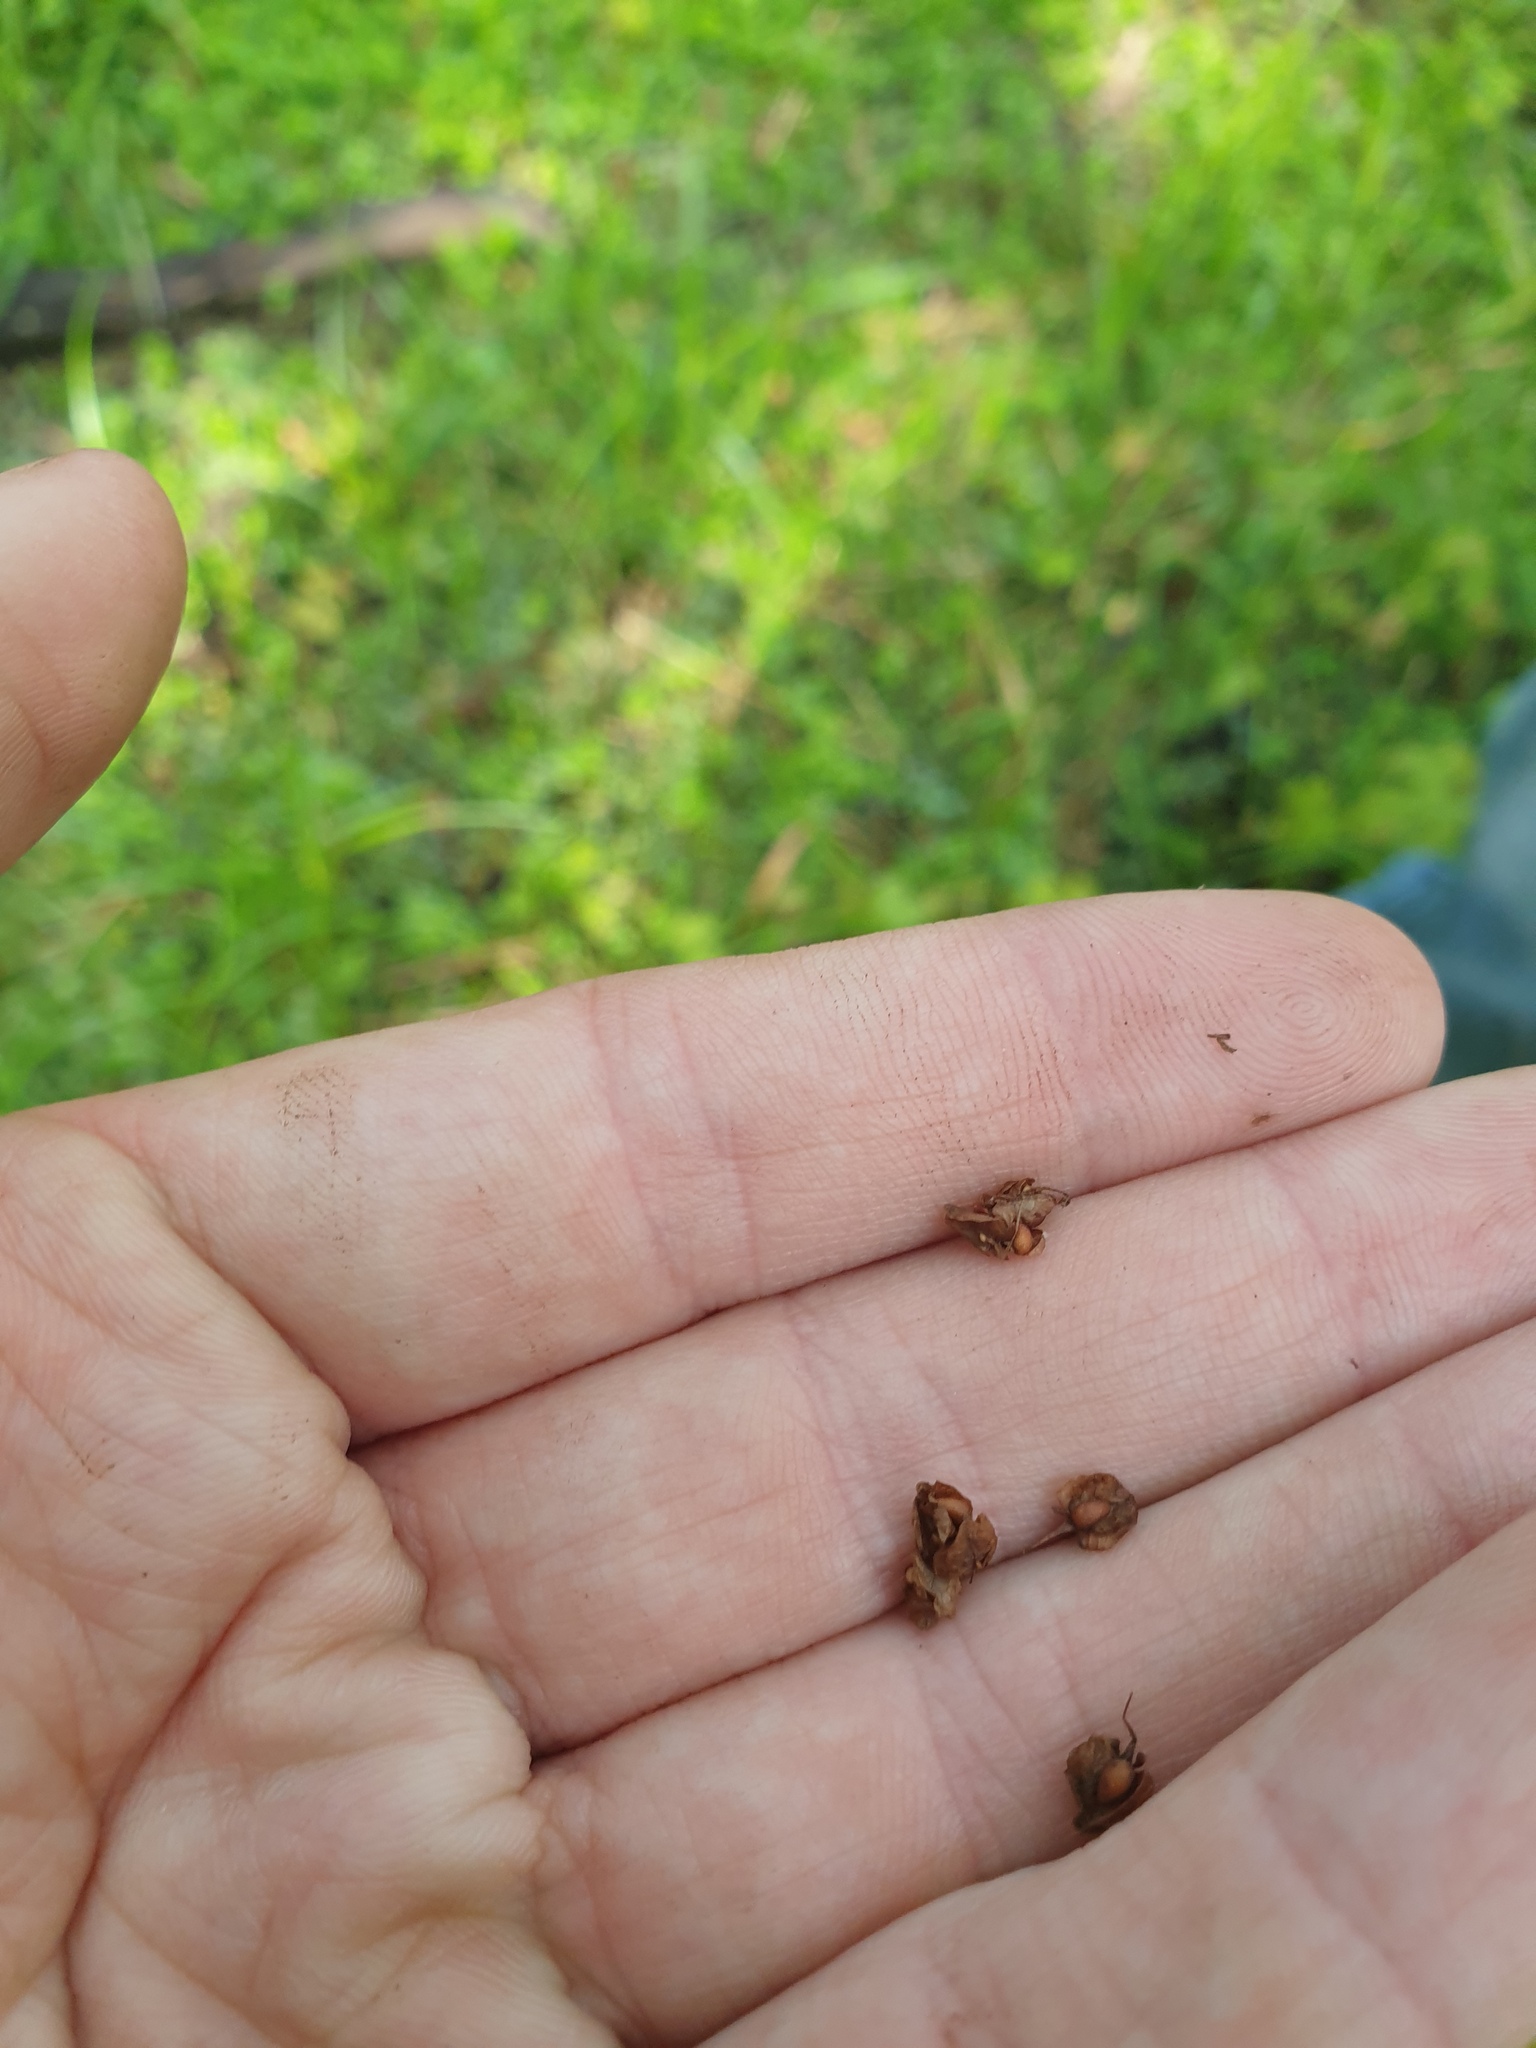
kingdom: Plantae
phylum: Tracheophyta
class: Magnoliopsida
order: Caryophyllales
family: Polygonaceae
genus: Rumex
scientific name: Rumex crispus
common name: Curled dock
